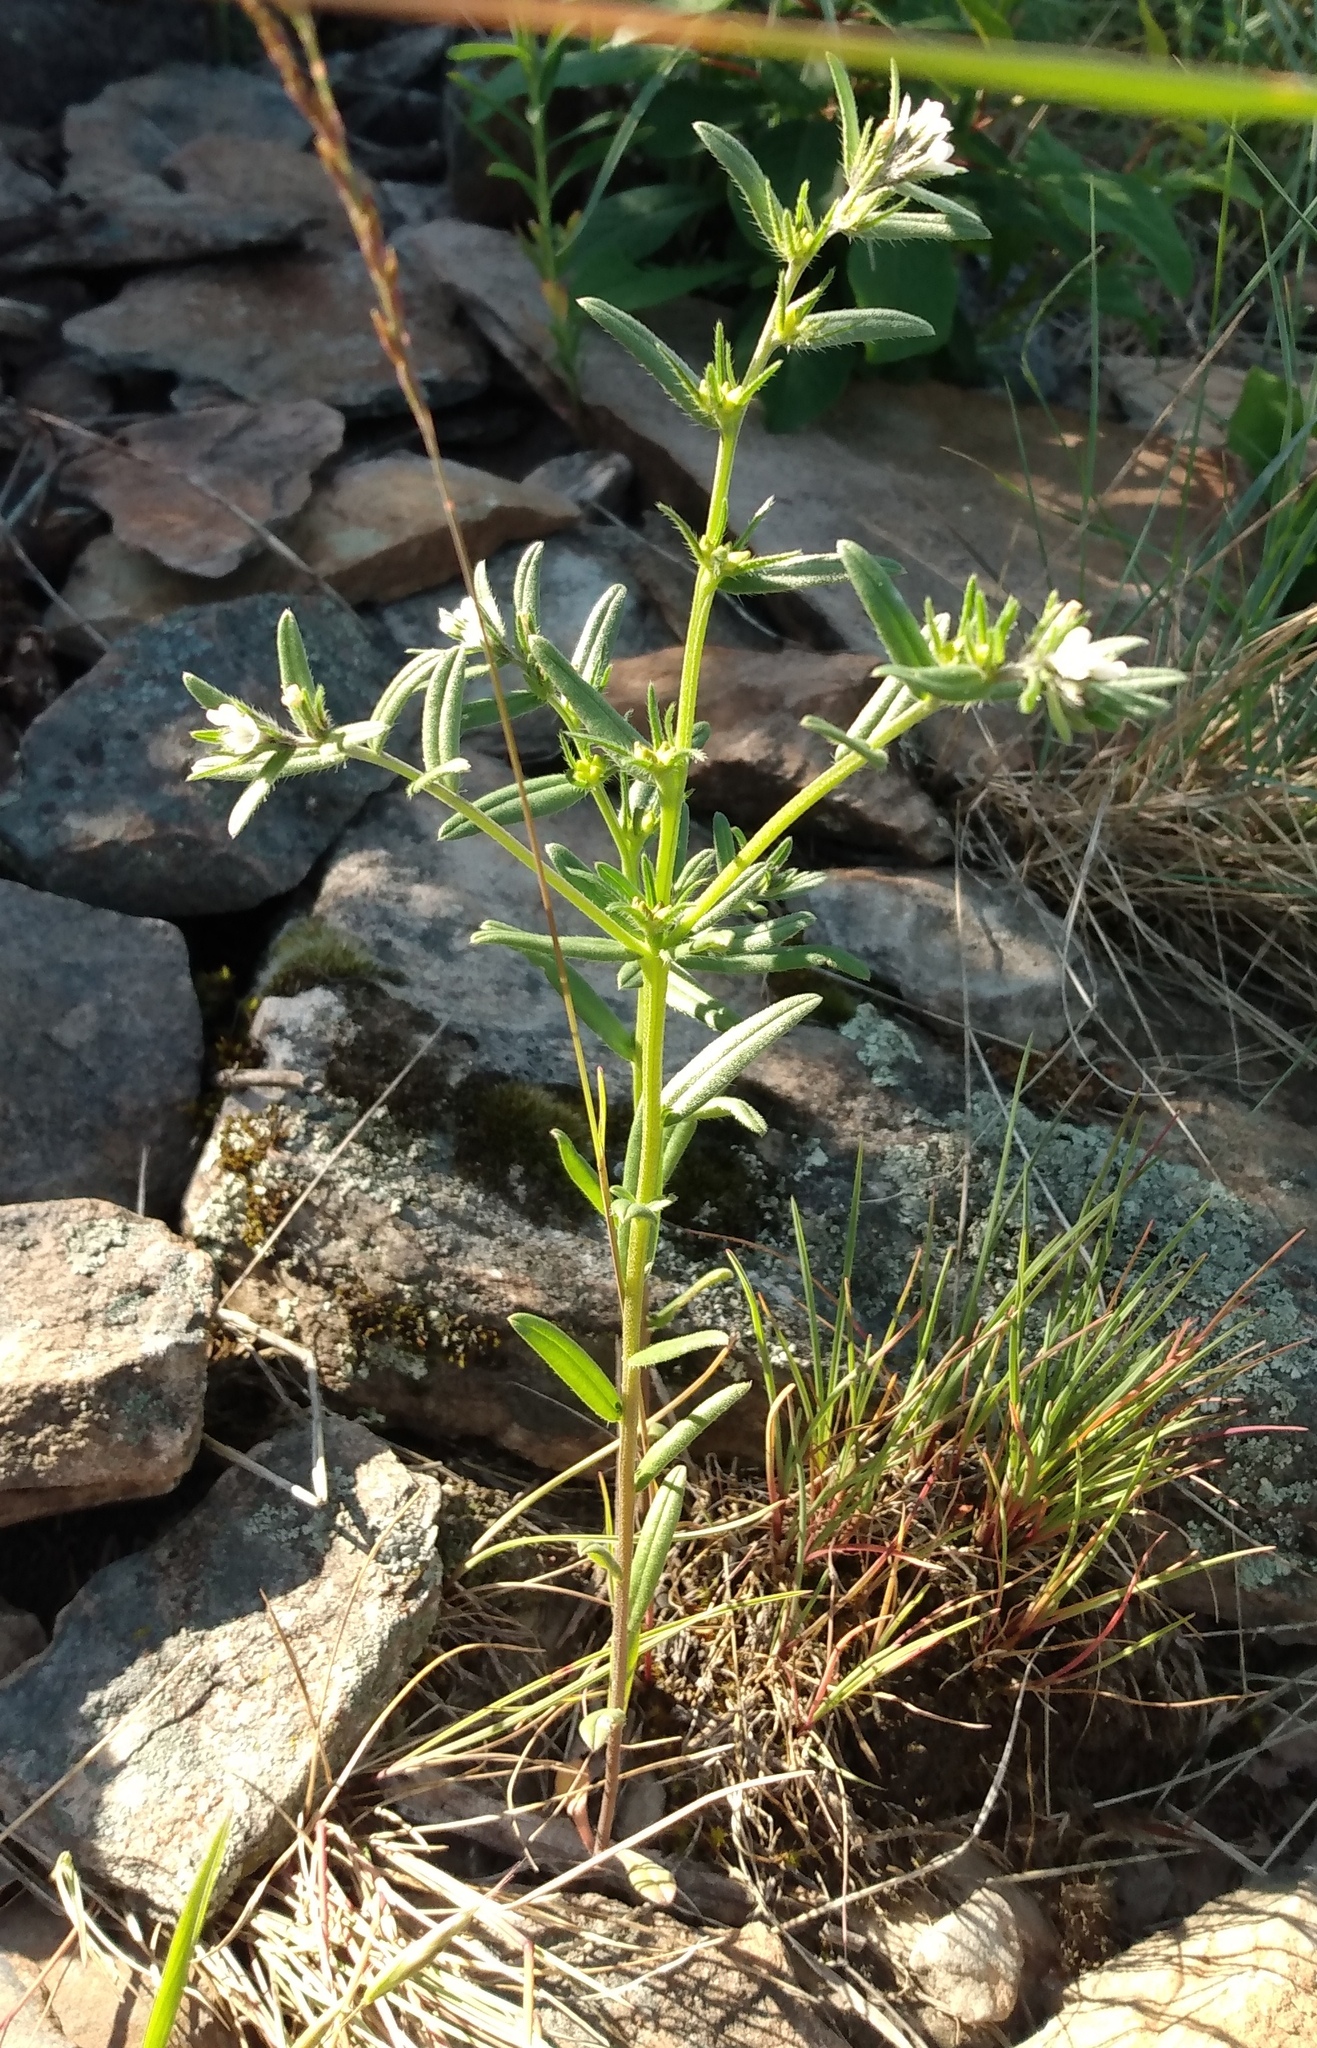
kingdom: Plantae
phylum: Tracheophyta
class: Magnoliopsida
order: Boraginales
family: Boraginaceae
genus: Buglossoides
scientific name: Buglossoides arvensis
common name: Corn gromwell
